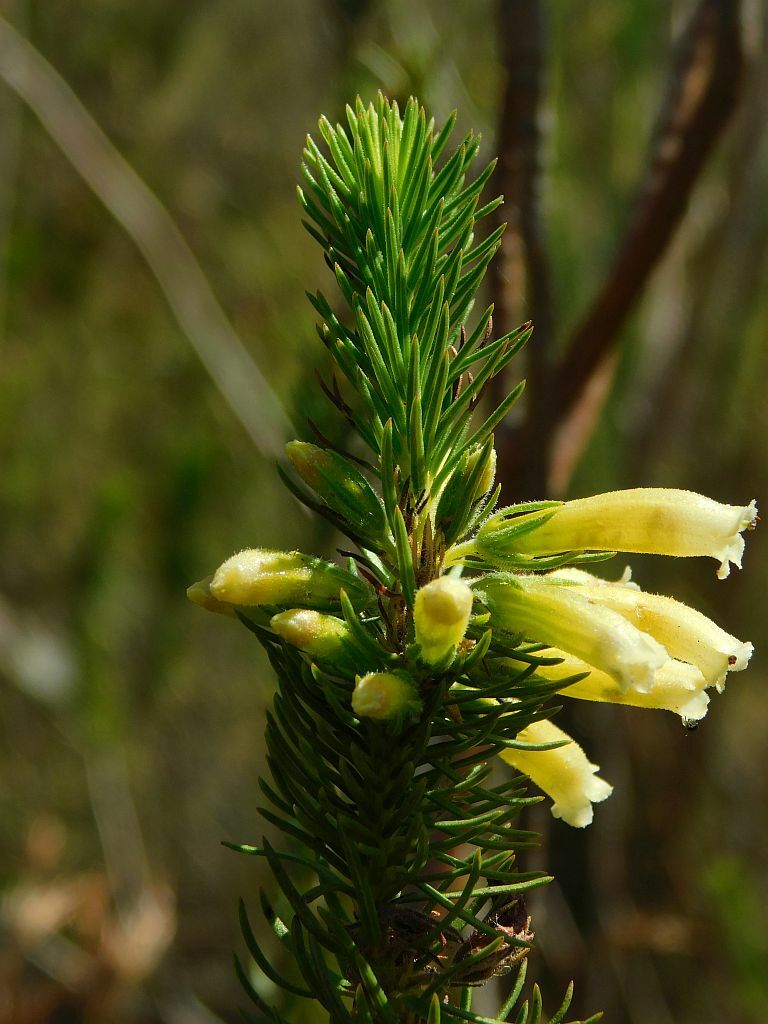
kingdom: Plantae
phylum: Tracheophyta
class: Magnoliopsida
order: Ericales
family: Ericaceae
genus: Erica
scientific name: Erica viscaria
